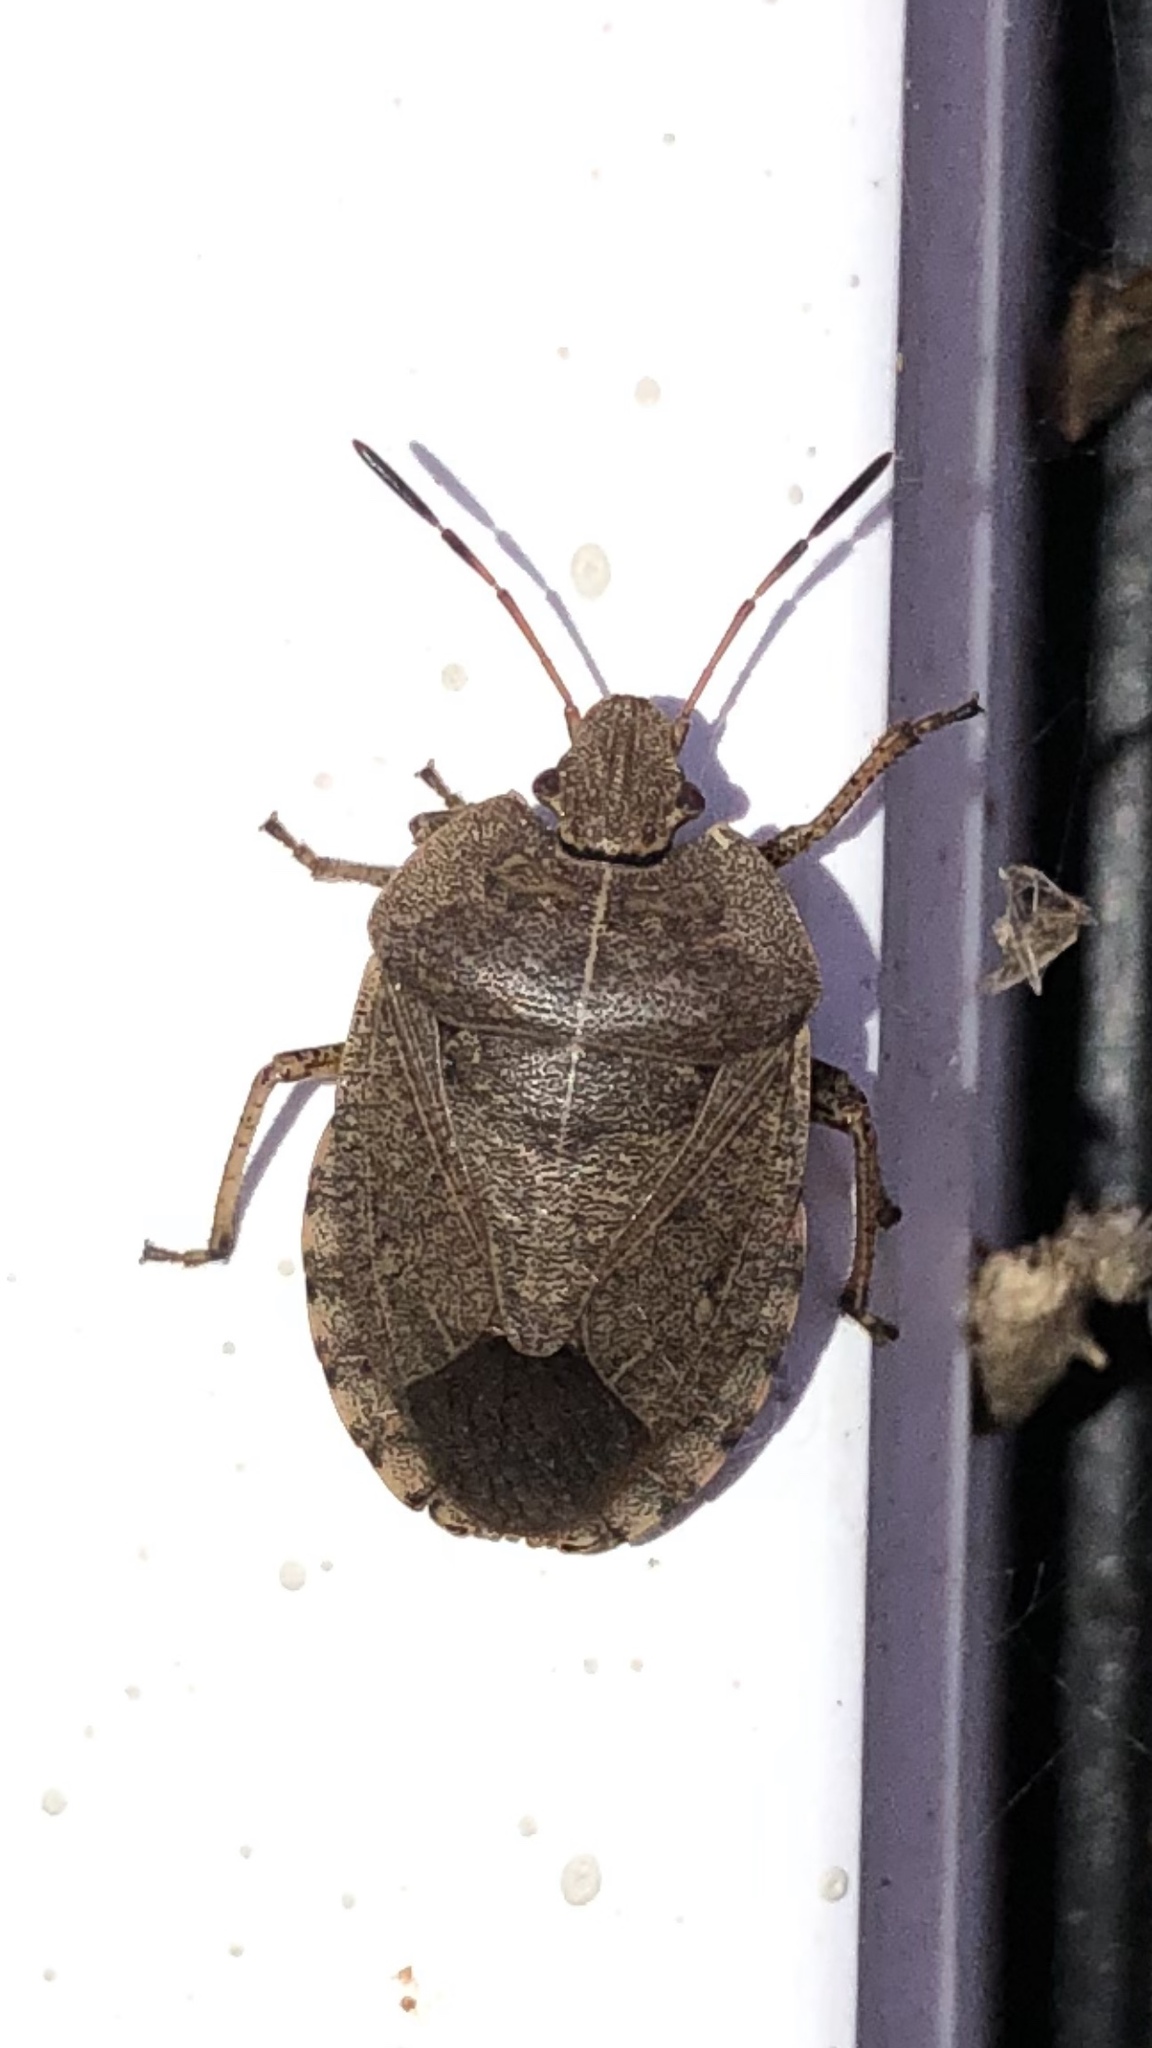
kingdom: Animalia
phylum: Arthropoda
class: Insecta
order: Hemiptera
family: Pentatomidae
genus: Menecles
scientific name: Menecles insertus
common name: Elf shoe stink bug
